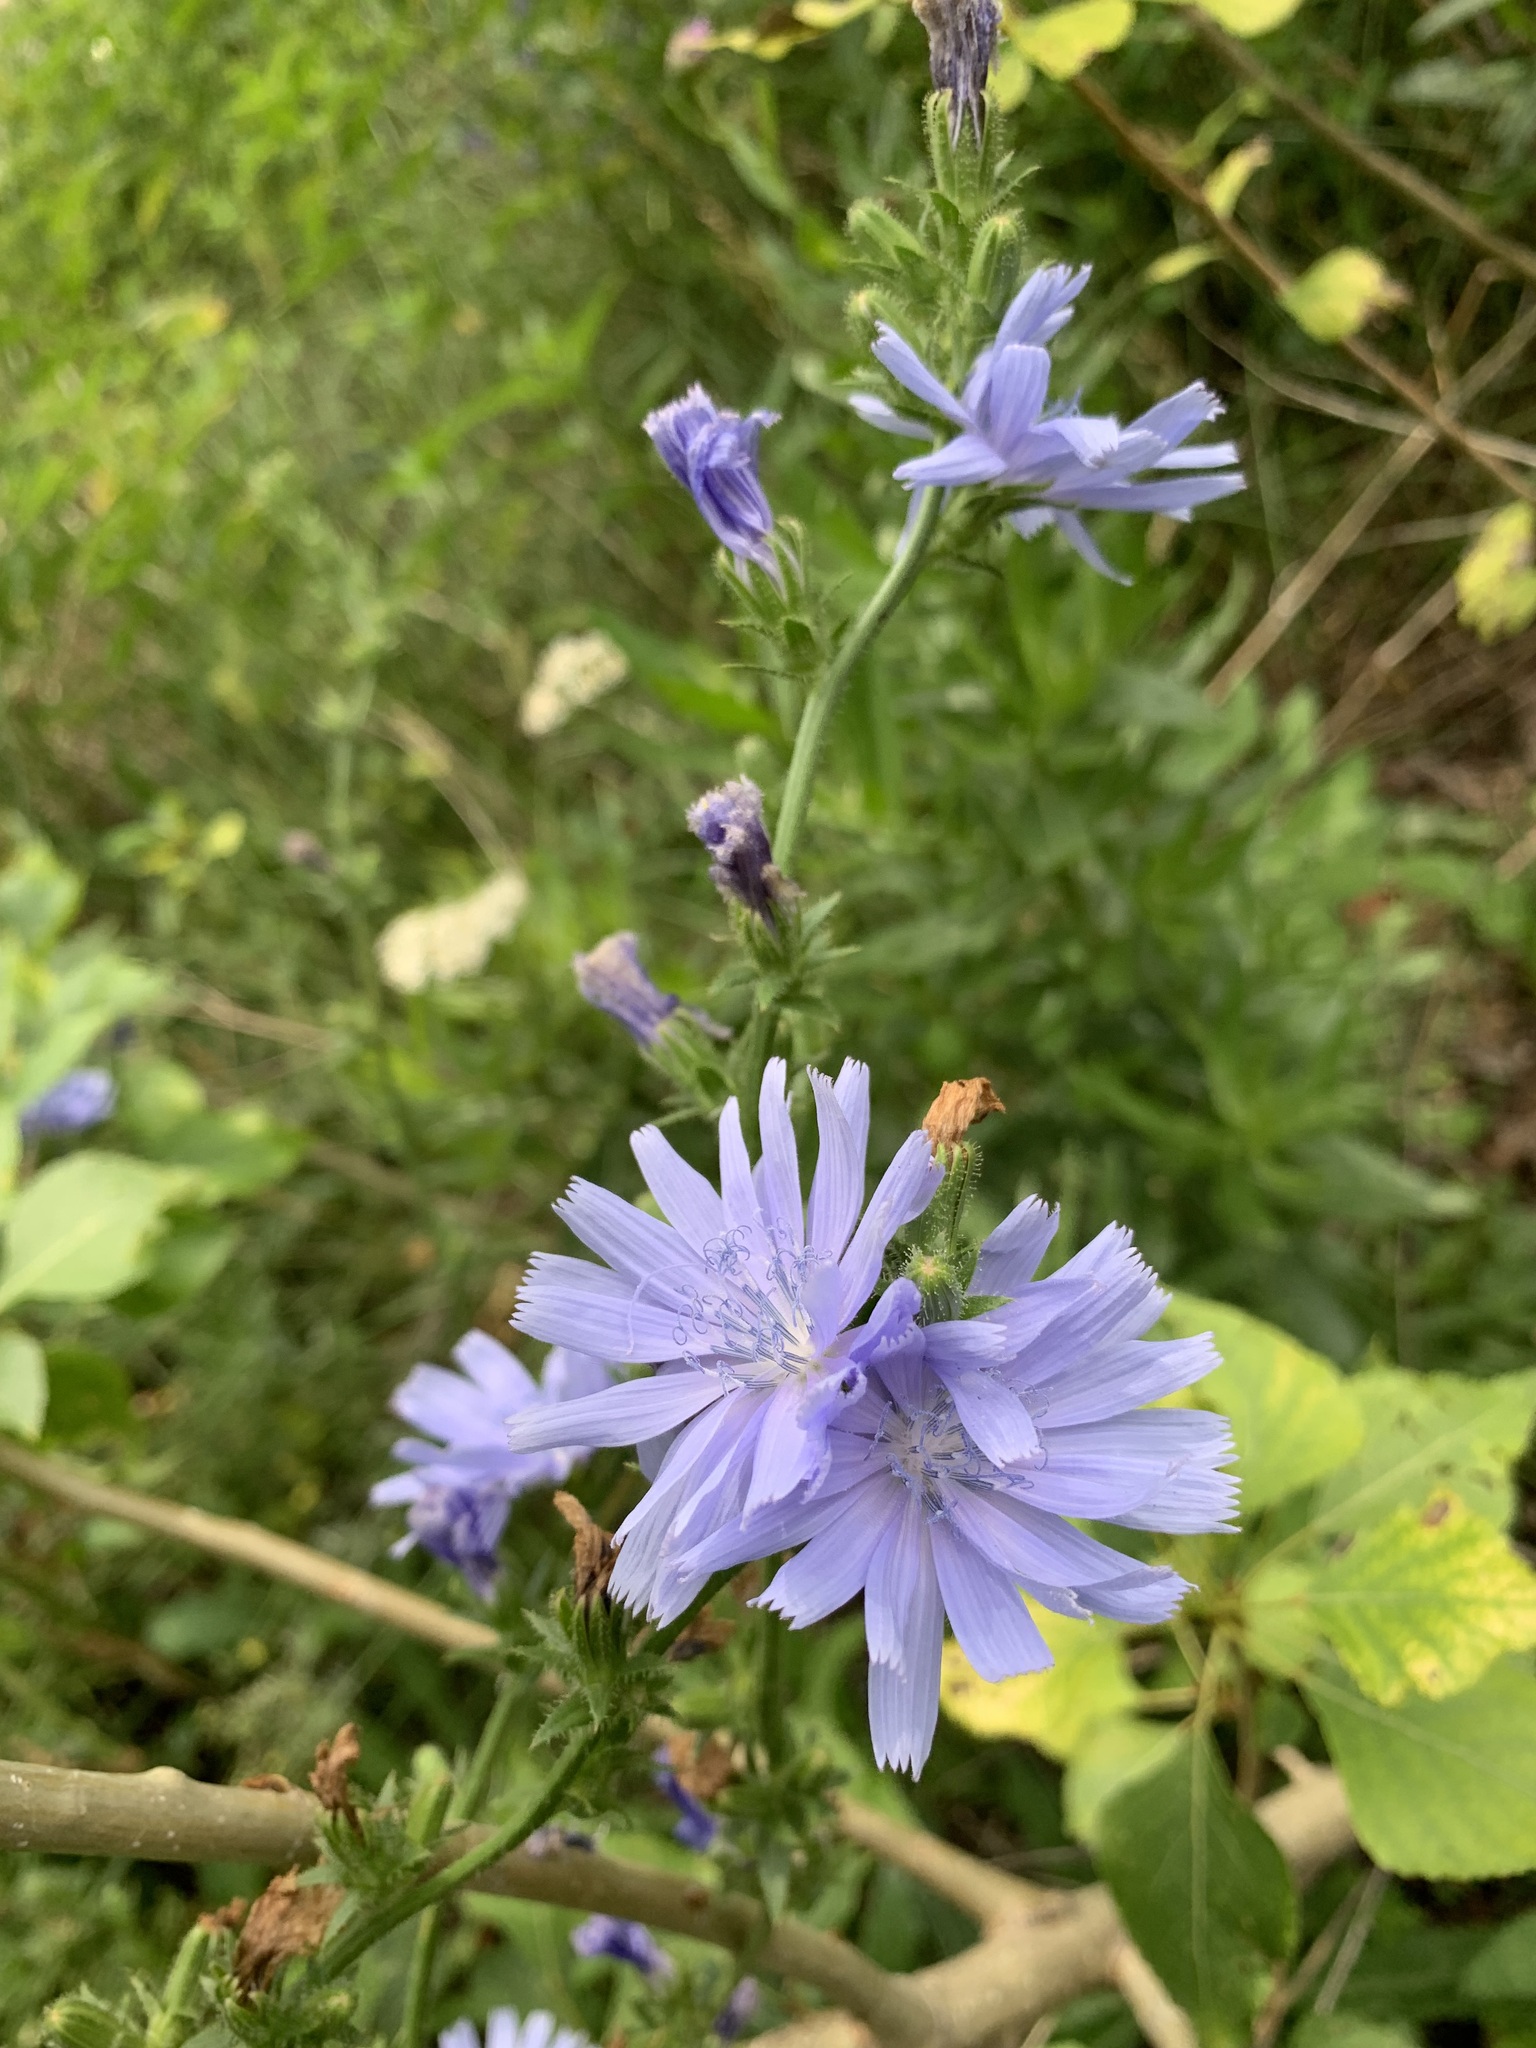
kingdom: Plantae
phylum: Tracheophyta
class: Magnoliopsida
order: Asterales
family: Asteraceae
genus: Cichorium
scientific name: Cichorium intybus
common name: Chicory
